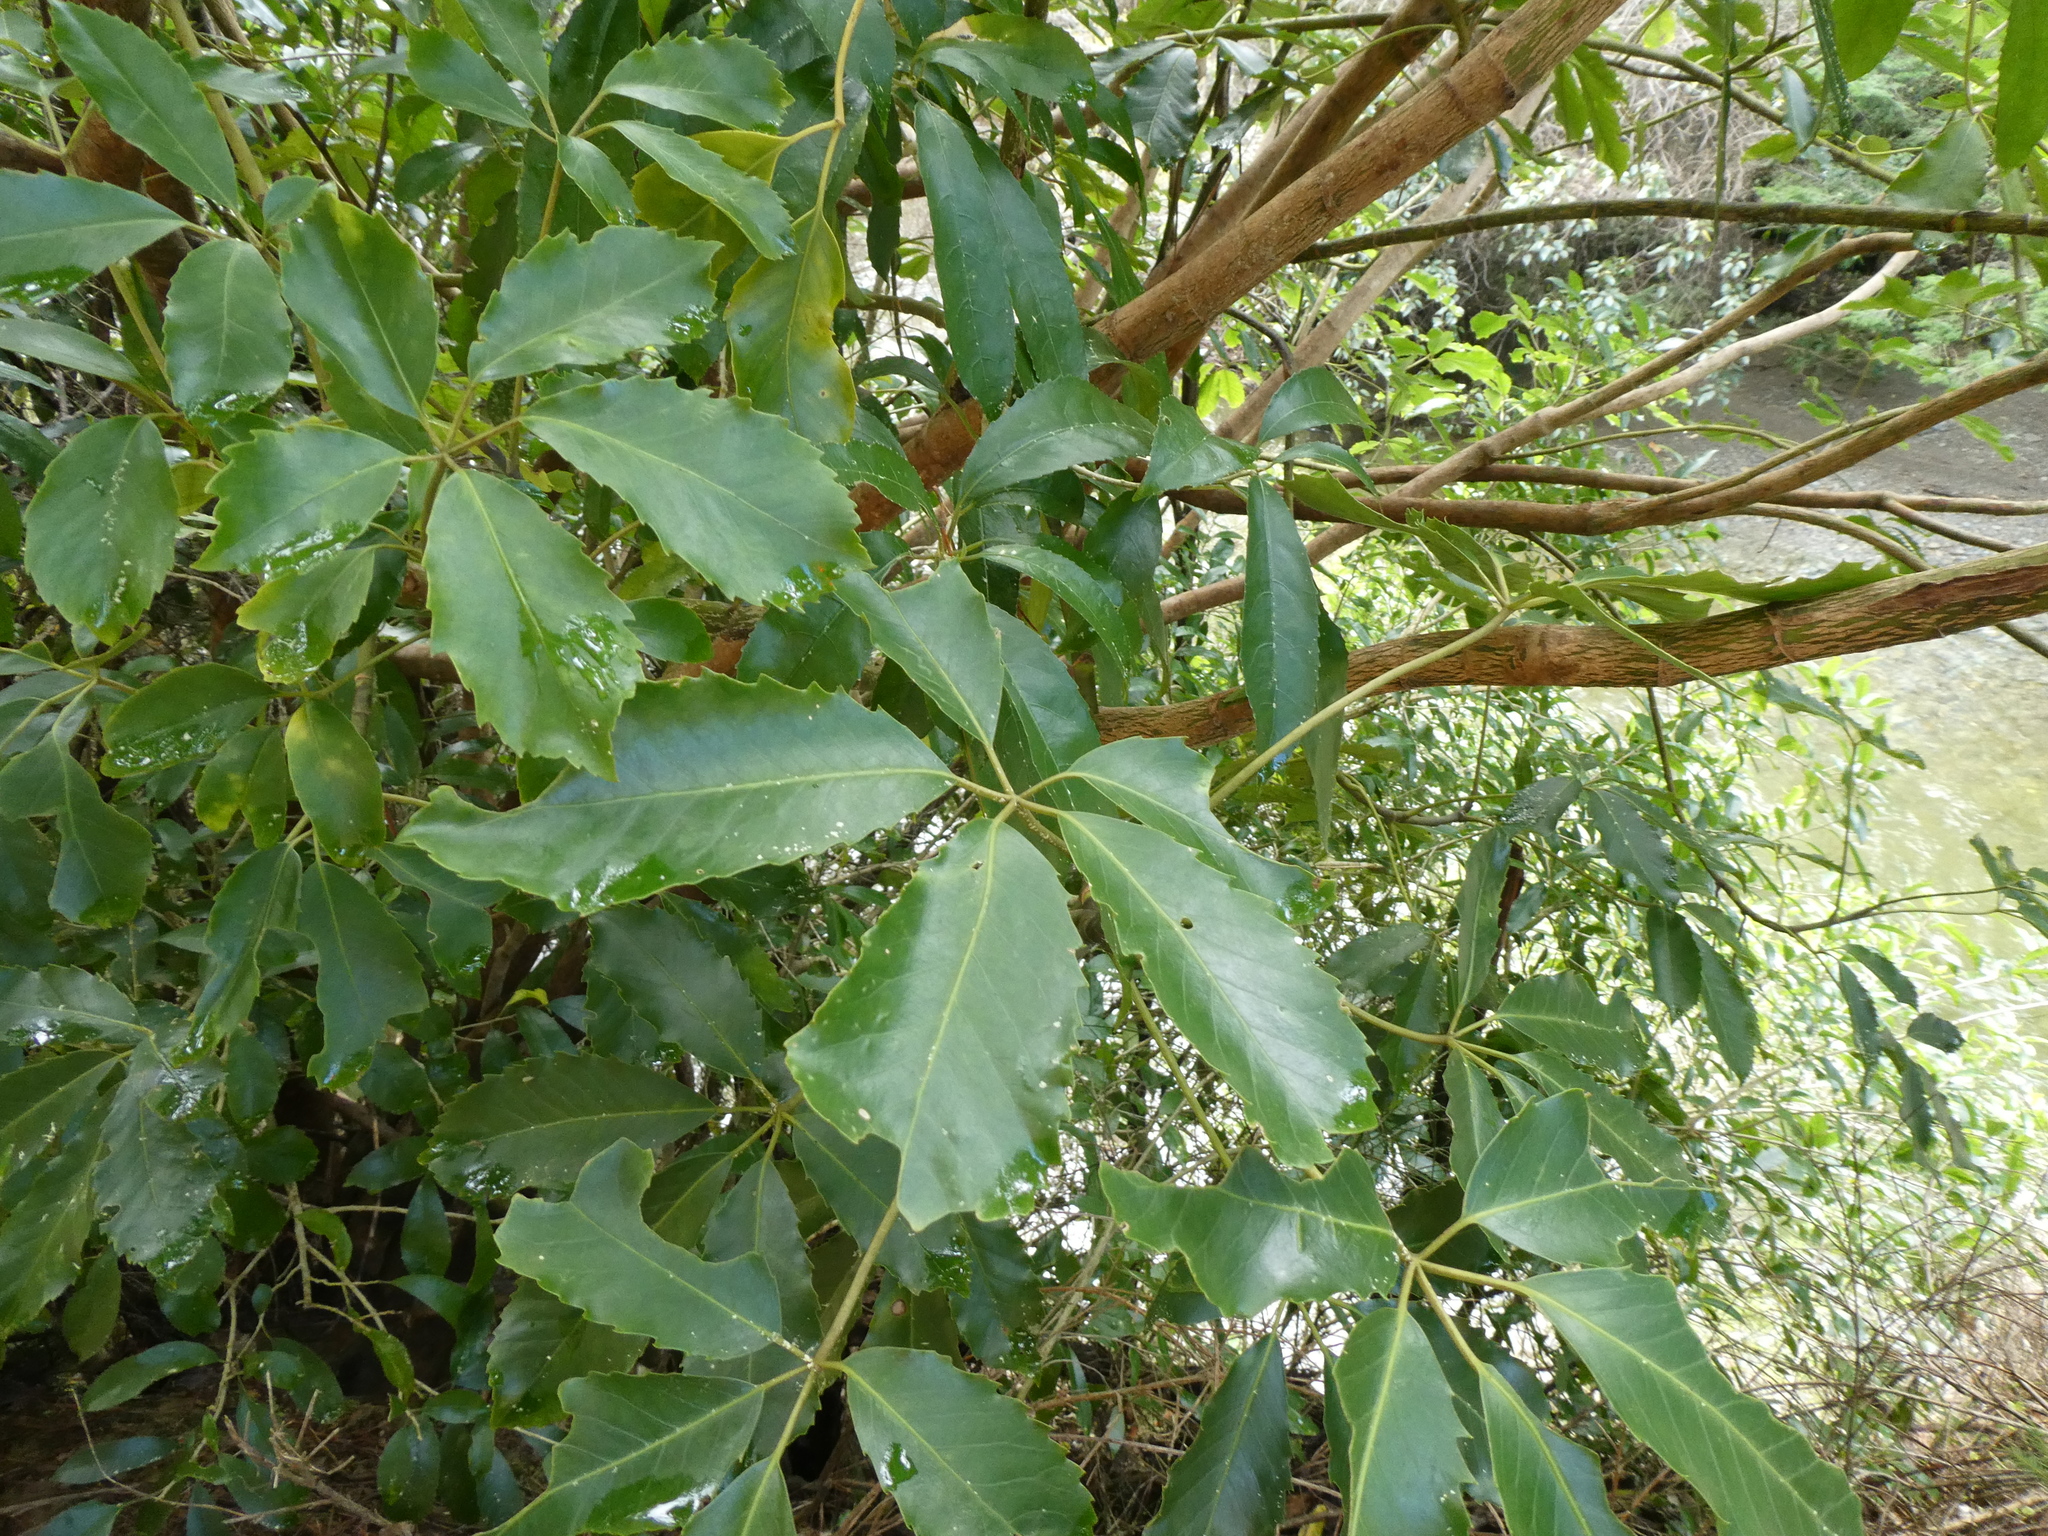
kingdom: Plantae
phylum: Tracheophyta
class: Magnoliopsida
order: Apiales
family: Araliaceae
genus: Neopanax
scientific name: Neopanax arboreus
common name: Five-fingers
